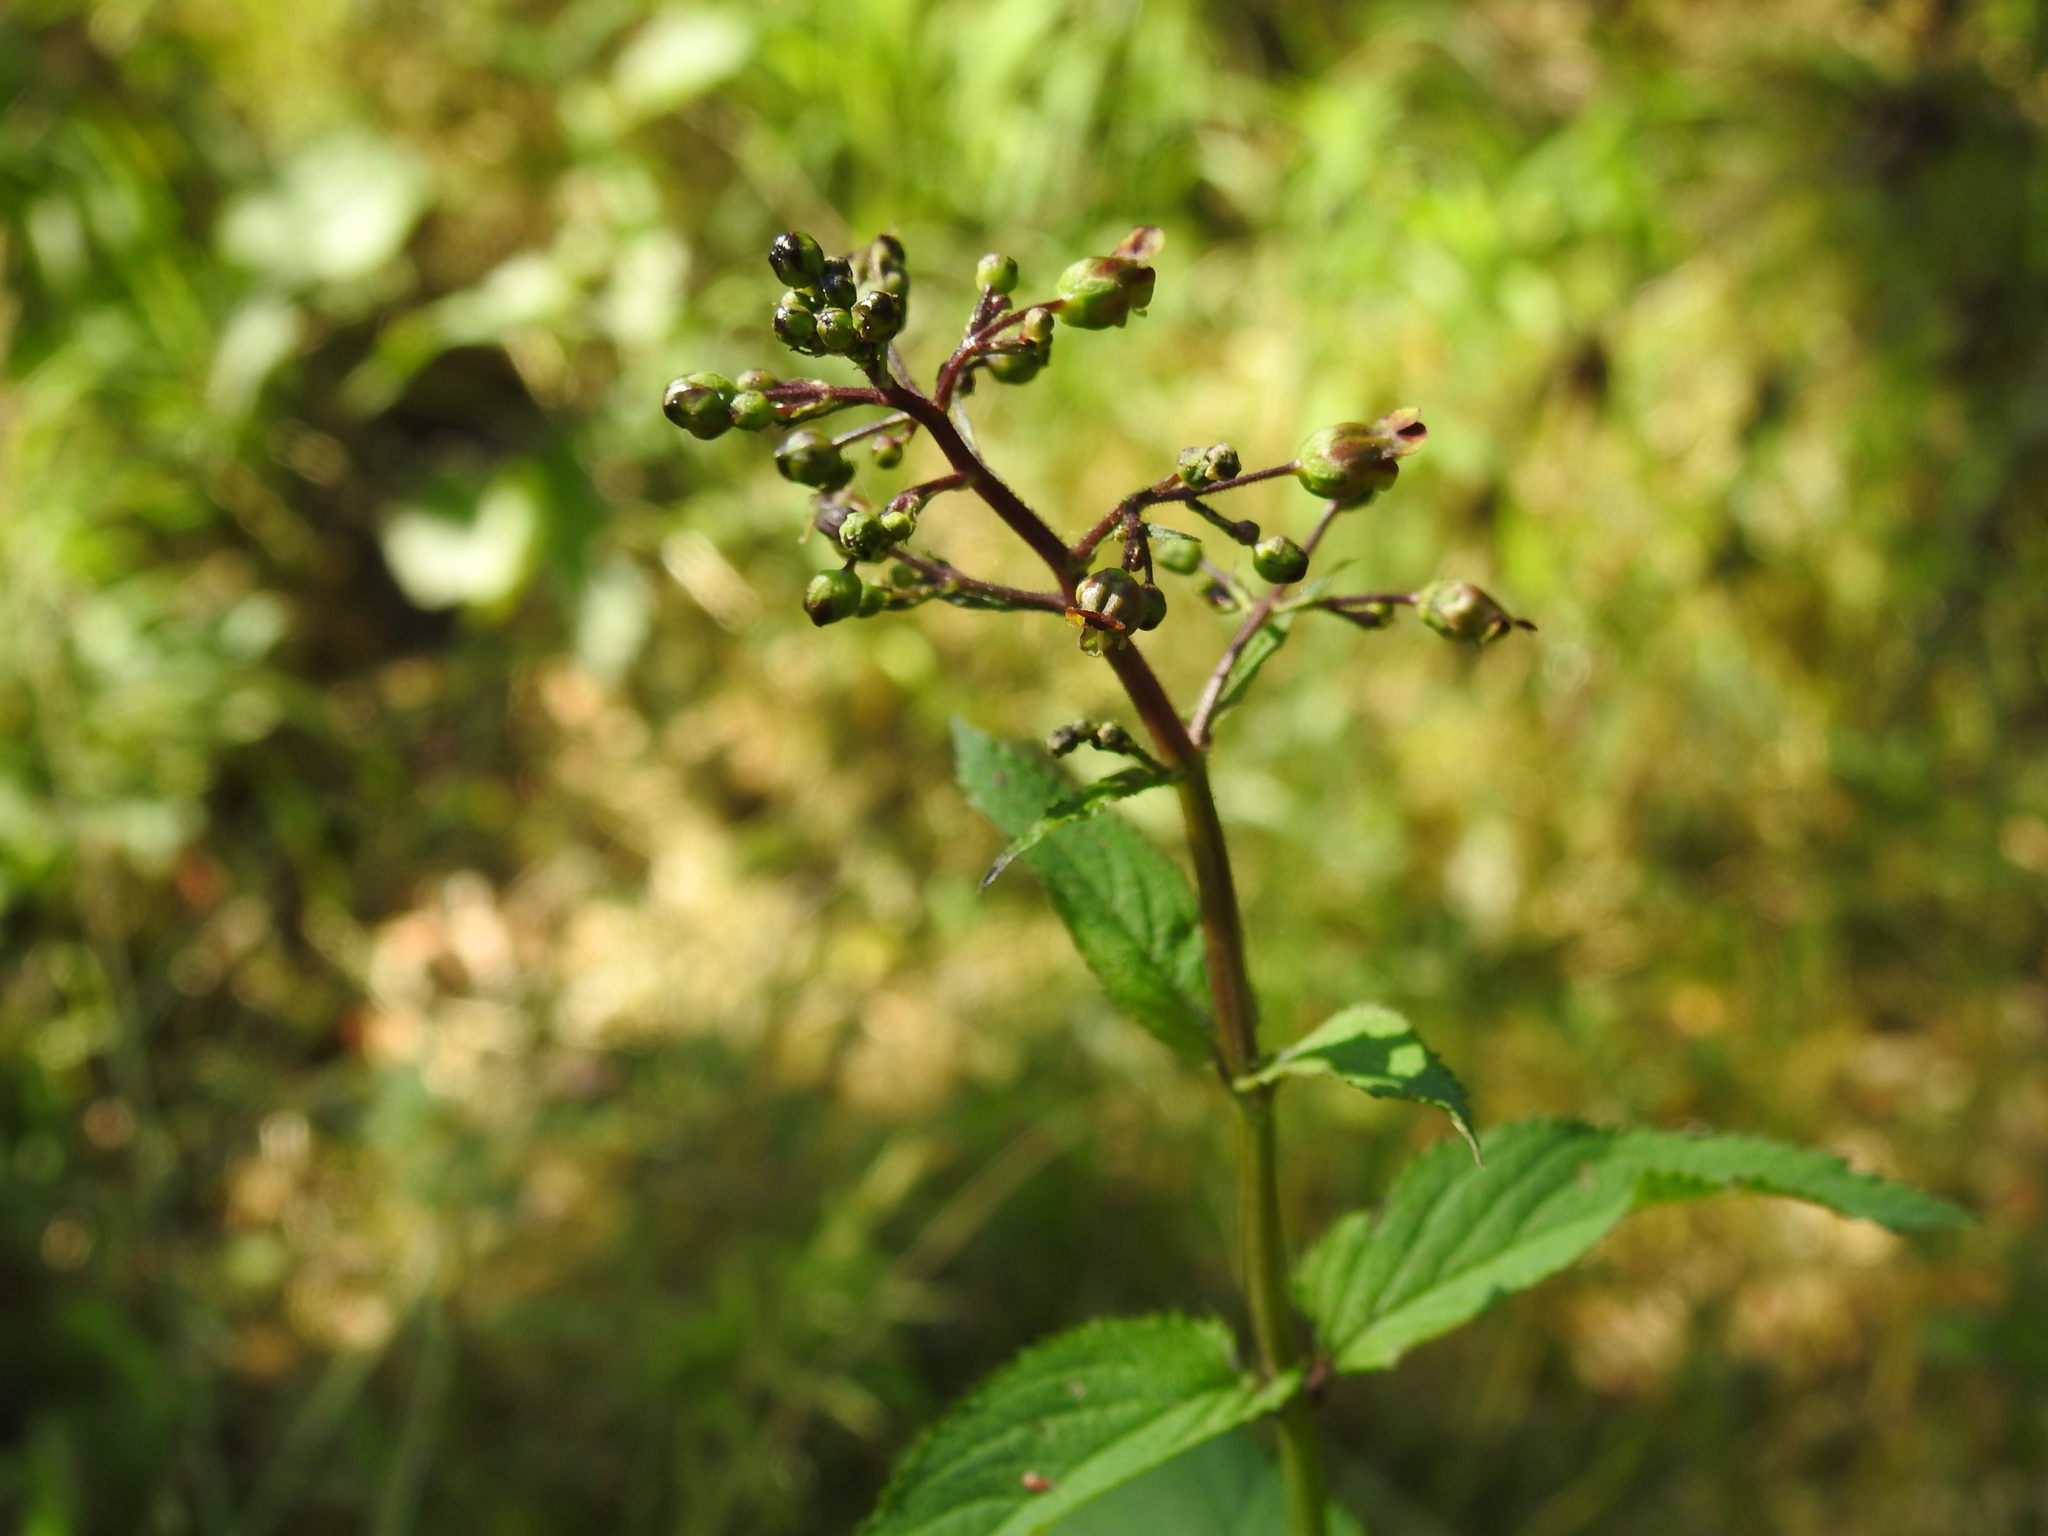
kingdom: Plantae
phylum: Tracheophyta
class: Magnoliopsida
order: Lamiales
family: Scrophulariaceae
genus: Scrophularia
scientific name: Scrophularia nodosa
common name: Common figwort
